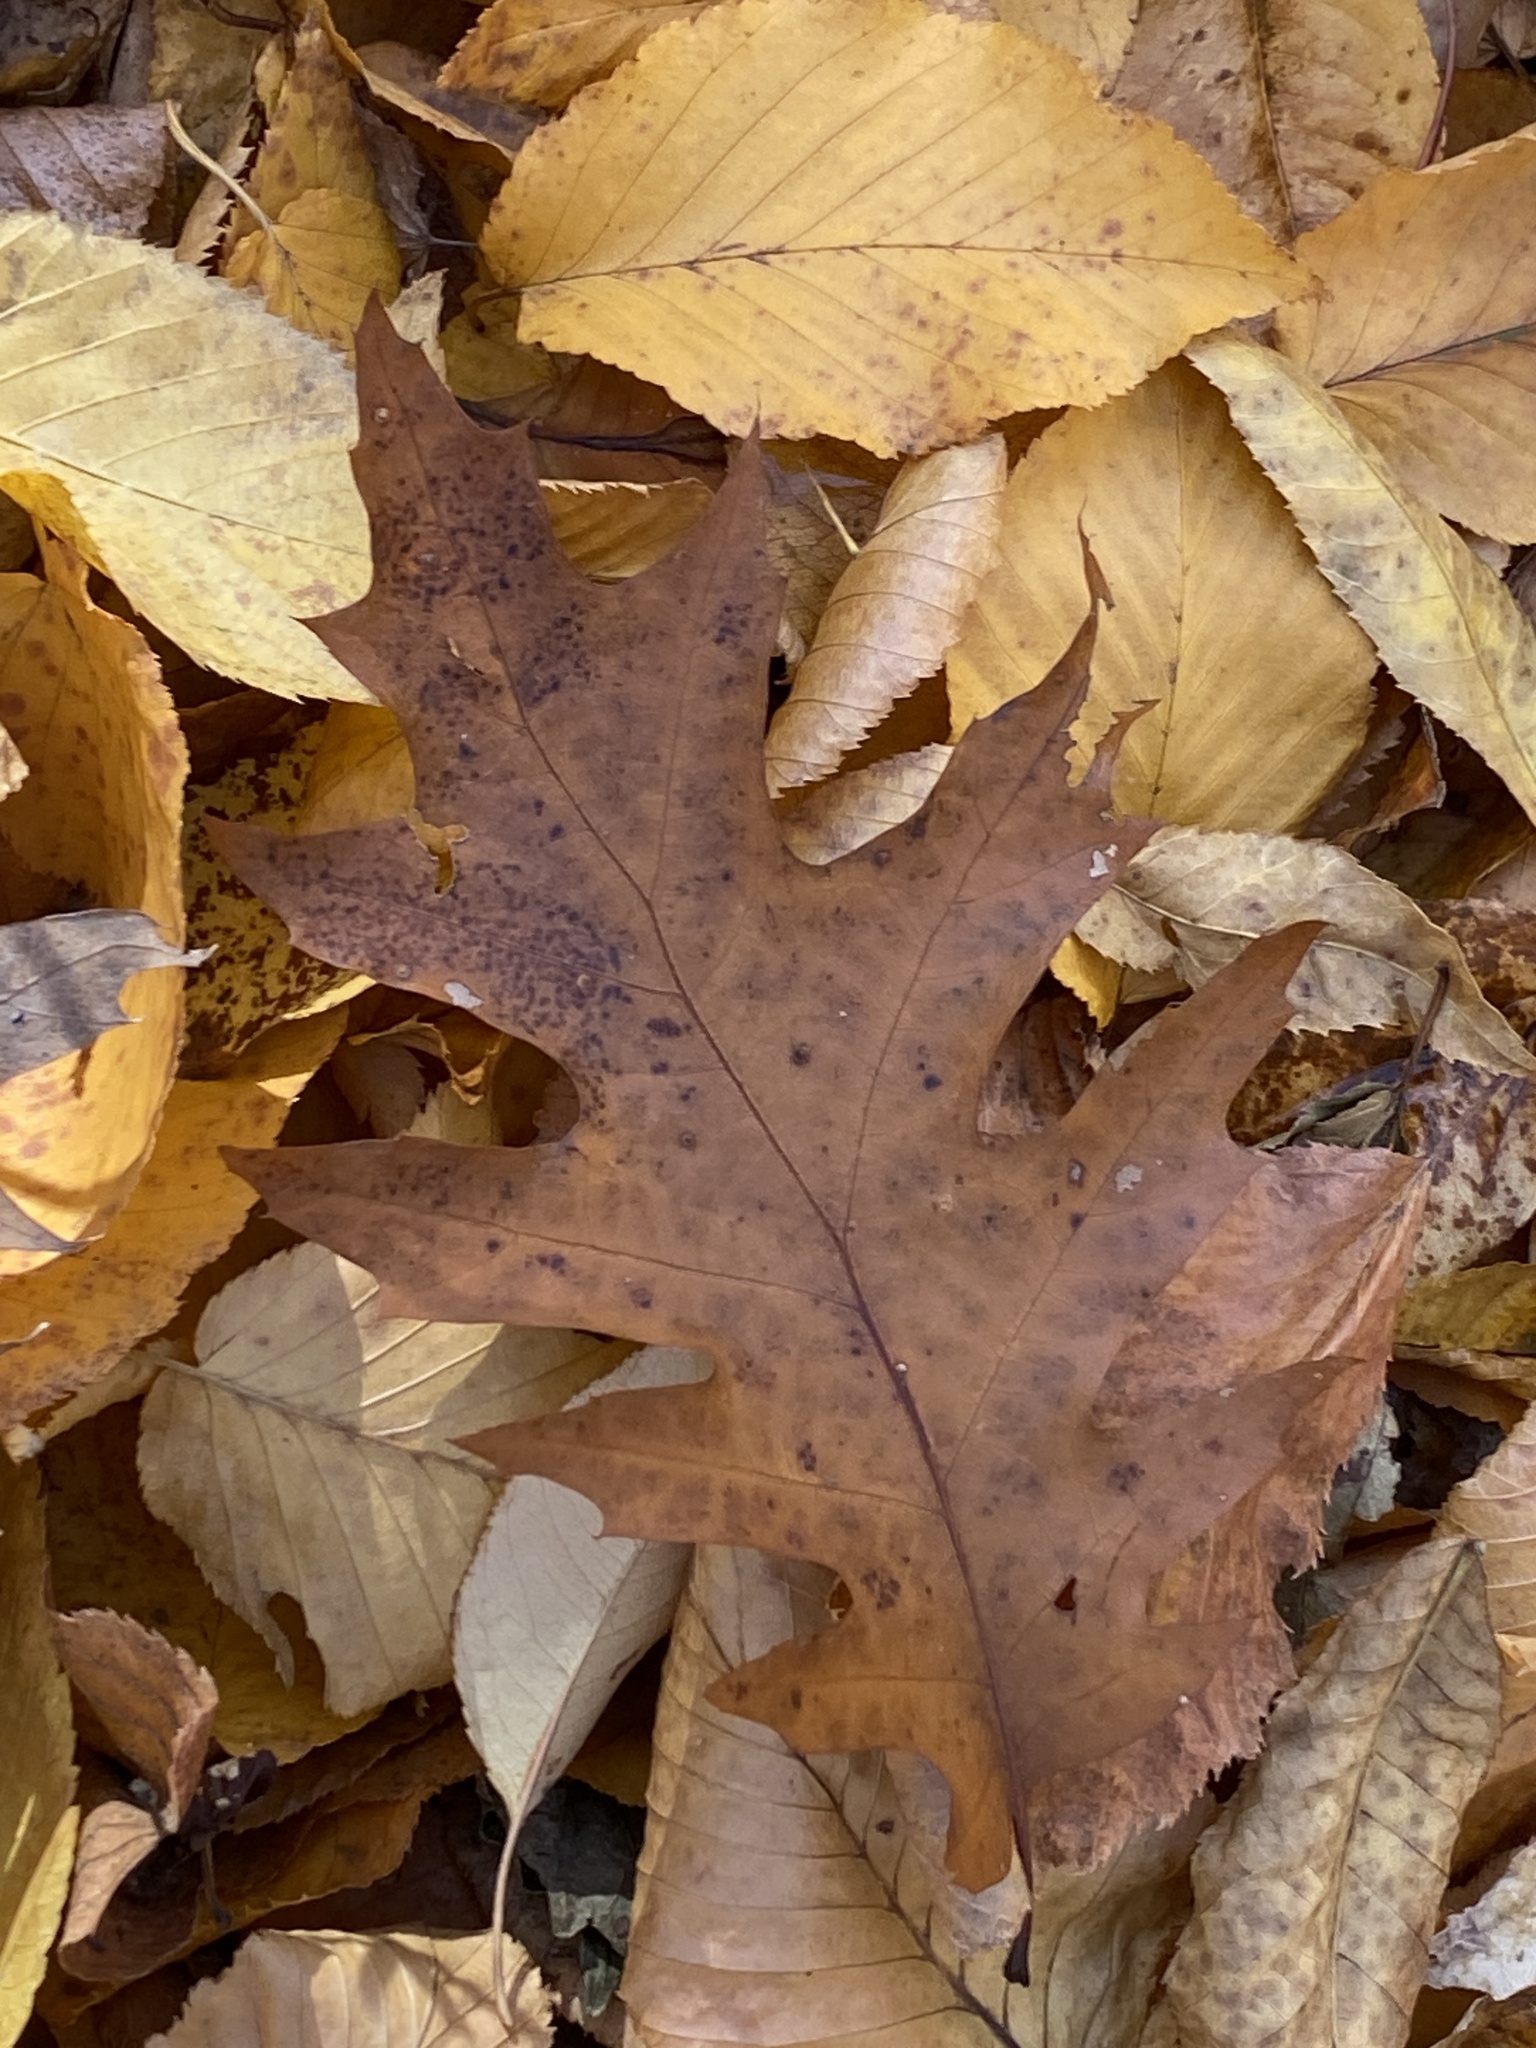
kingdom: Plantae
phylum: Tracheophyta
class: Magnoliopsida
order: Fagales
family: Fagaceae
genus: Quercus
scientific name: Quercus rubra
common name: Red oak
